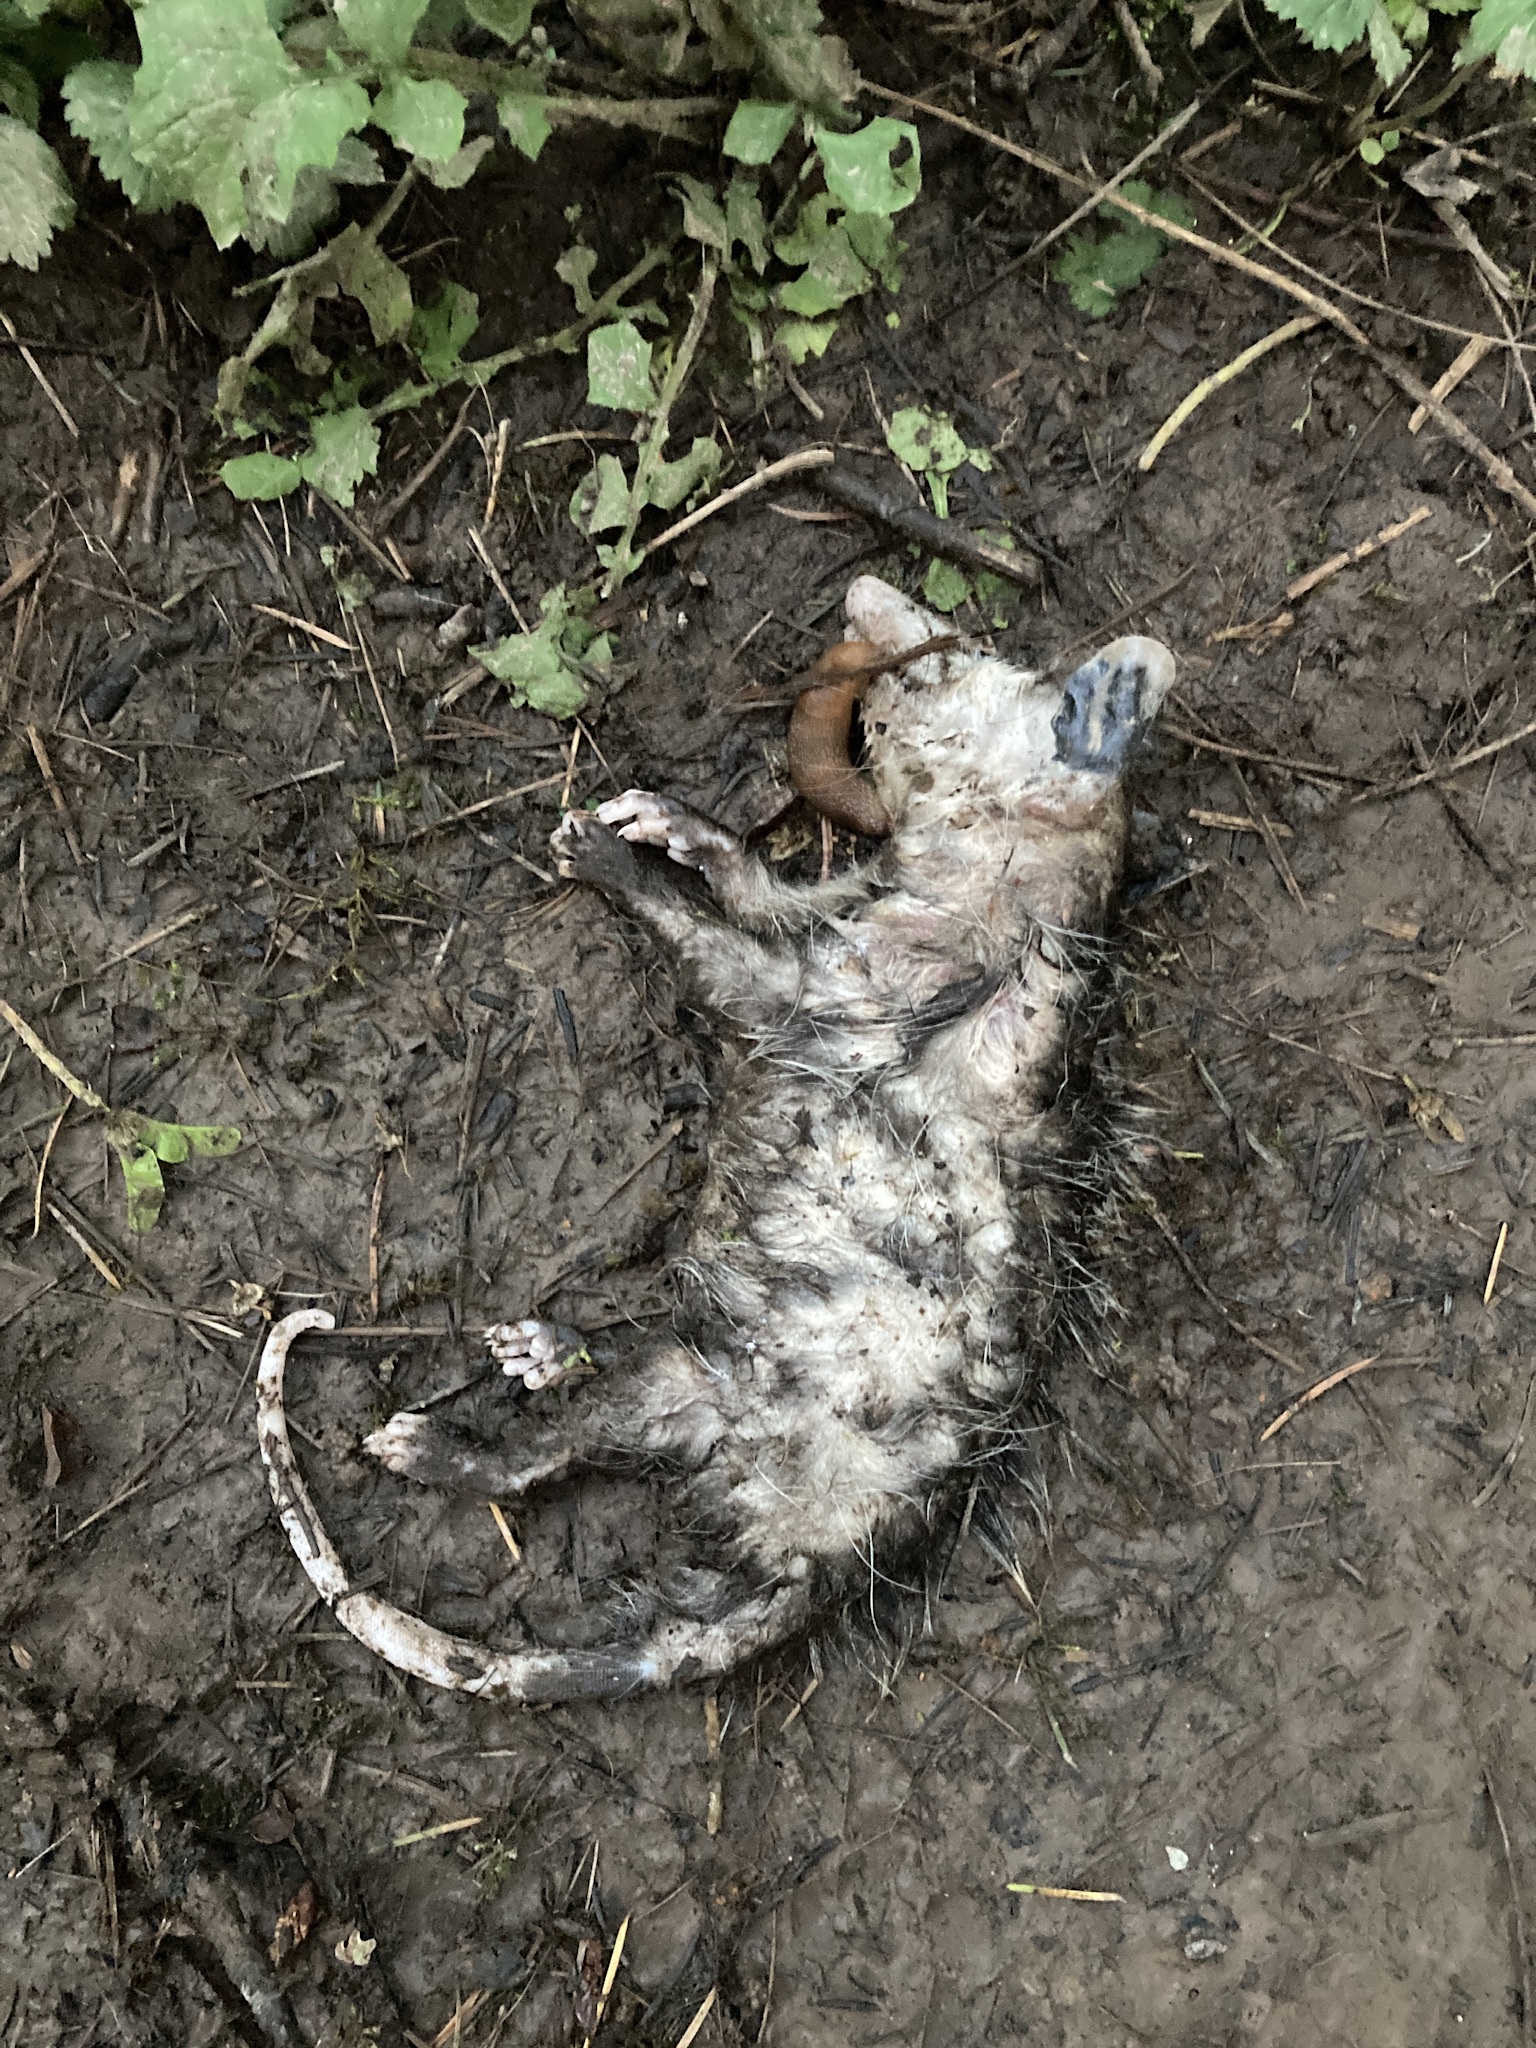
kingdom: Animalia
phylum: Chordata
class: Mammalia
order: Didelphimorphia
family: Didelphidae
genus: Didelphis
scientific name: Didelphis virginiana
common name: Virginia opossum
